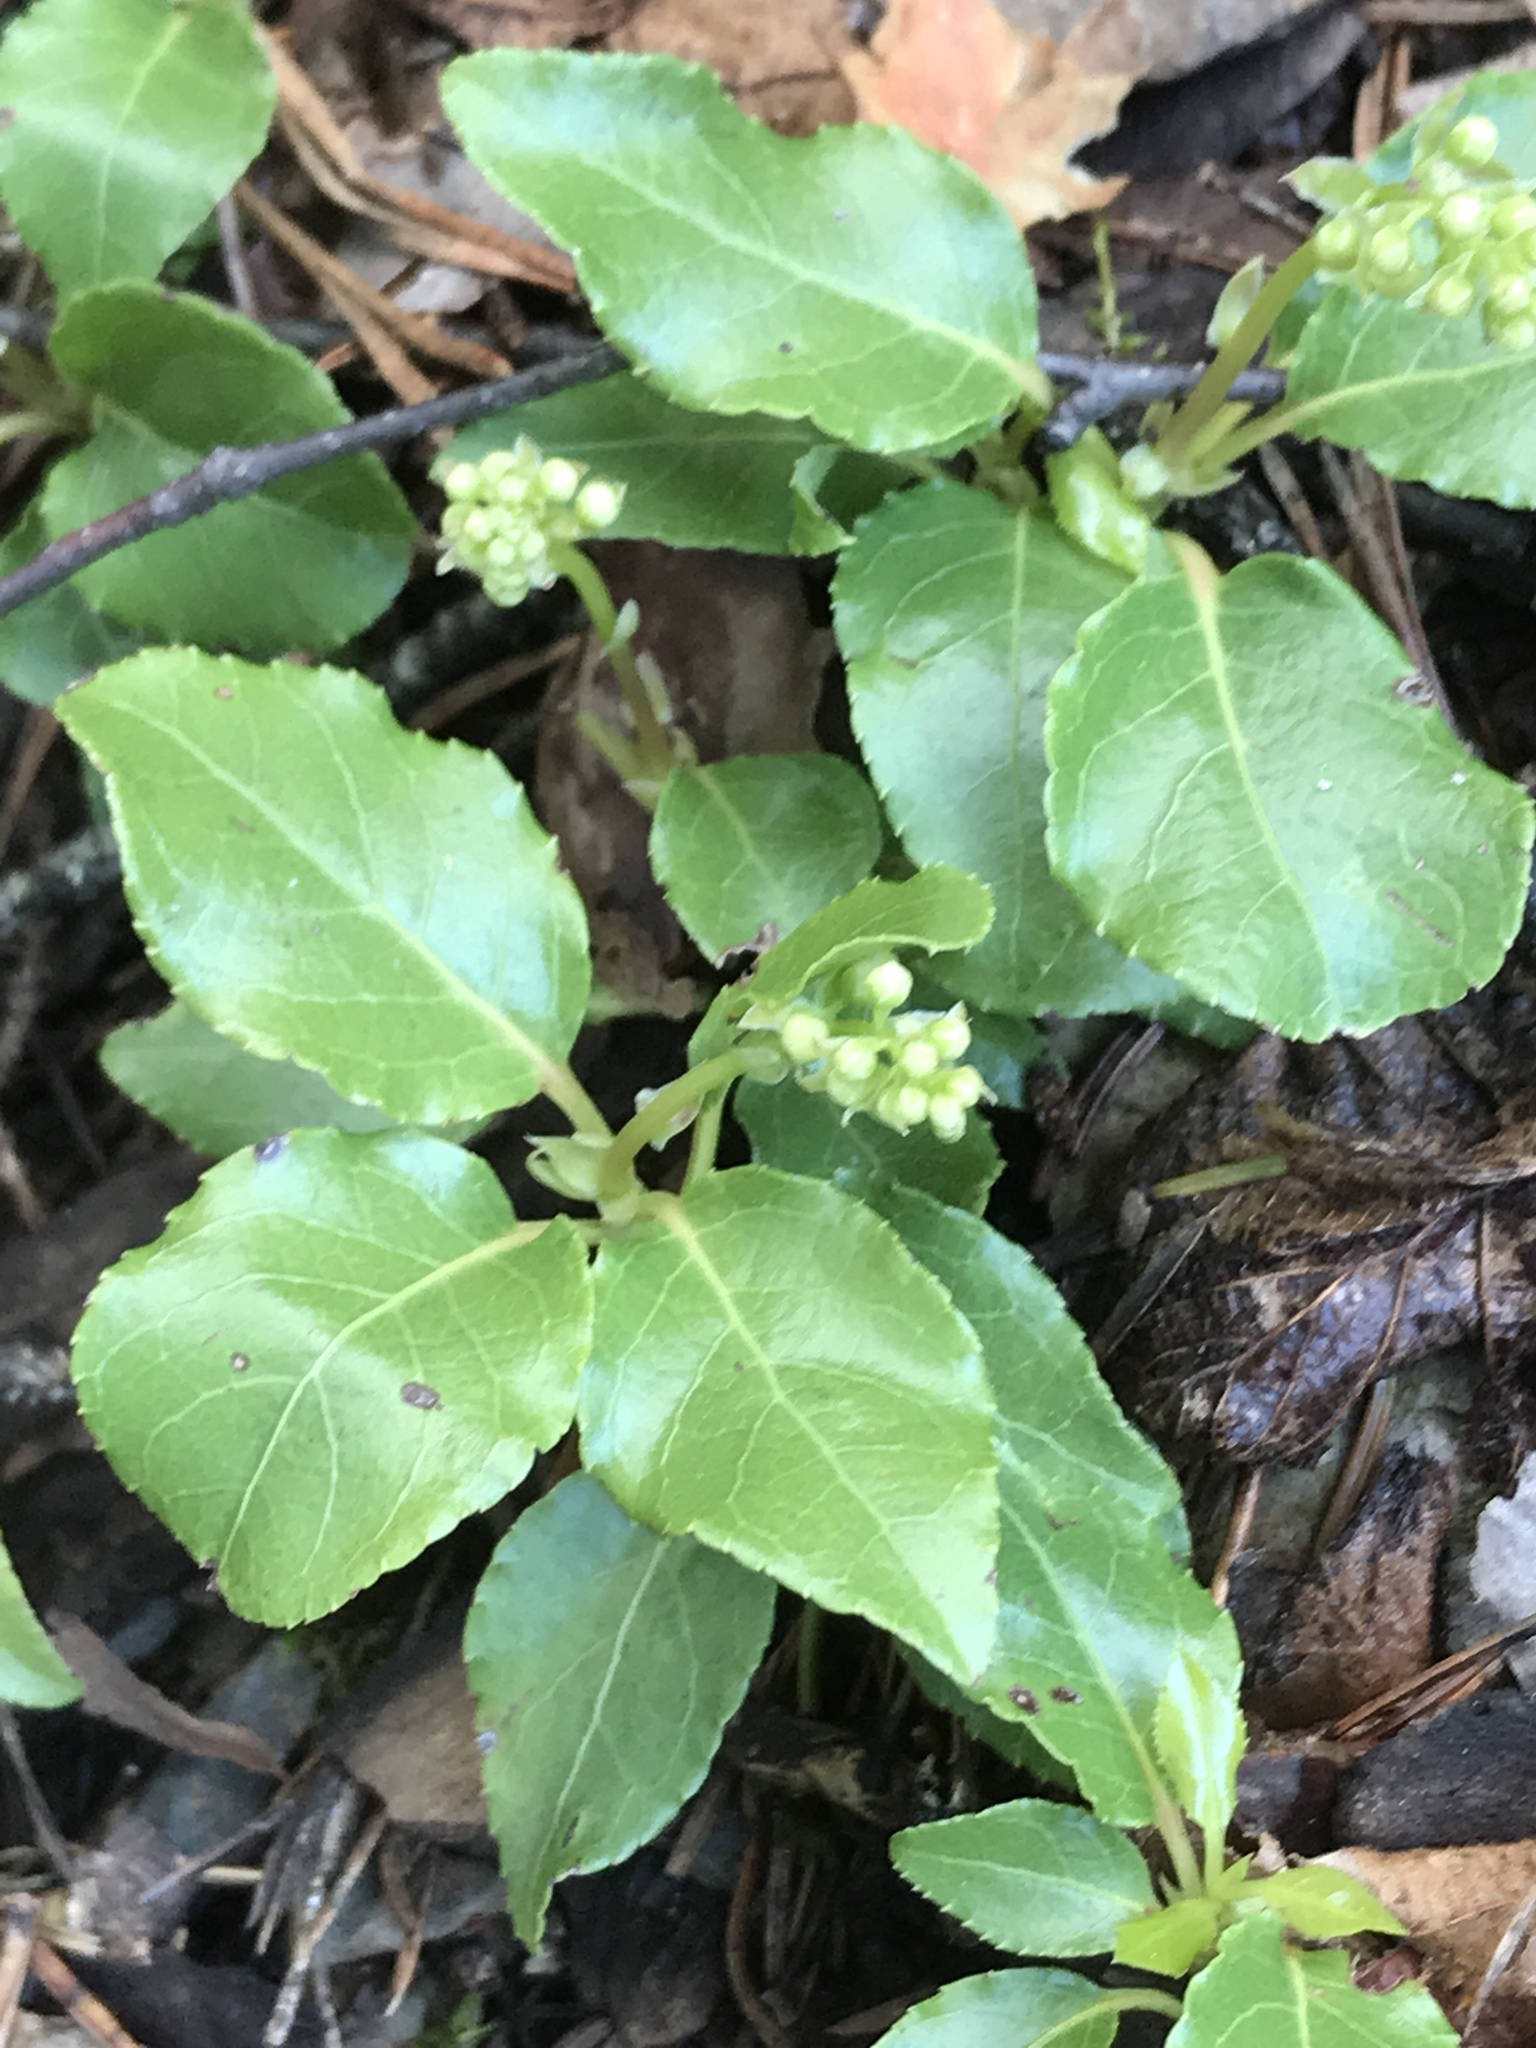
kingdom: Plantae
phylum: Tracheophyta
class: Magnoliopsida
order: Ericales
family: Ericaceae
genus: Orthilia
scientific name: Orthilia secunda
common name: One-sided orthilia
